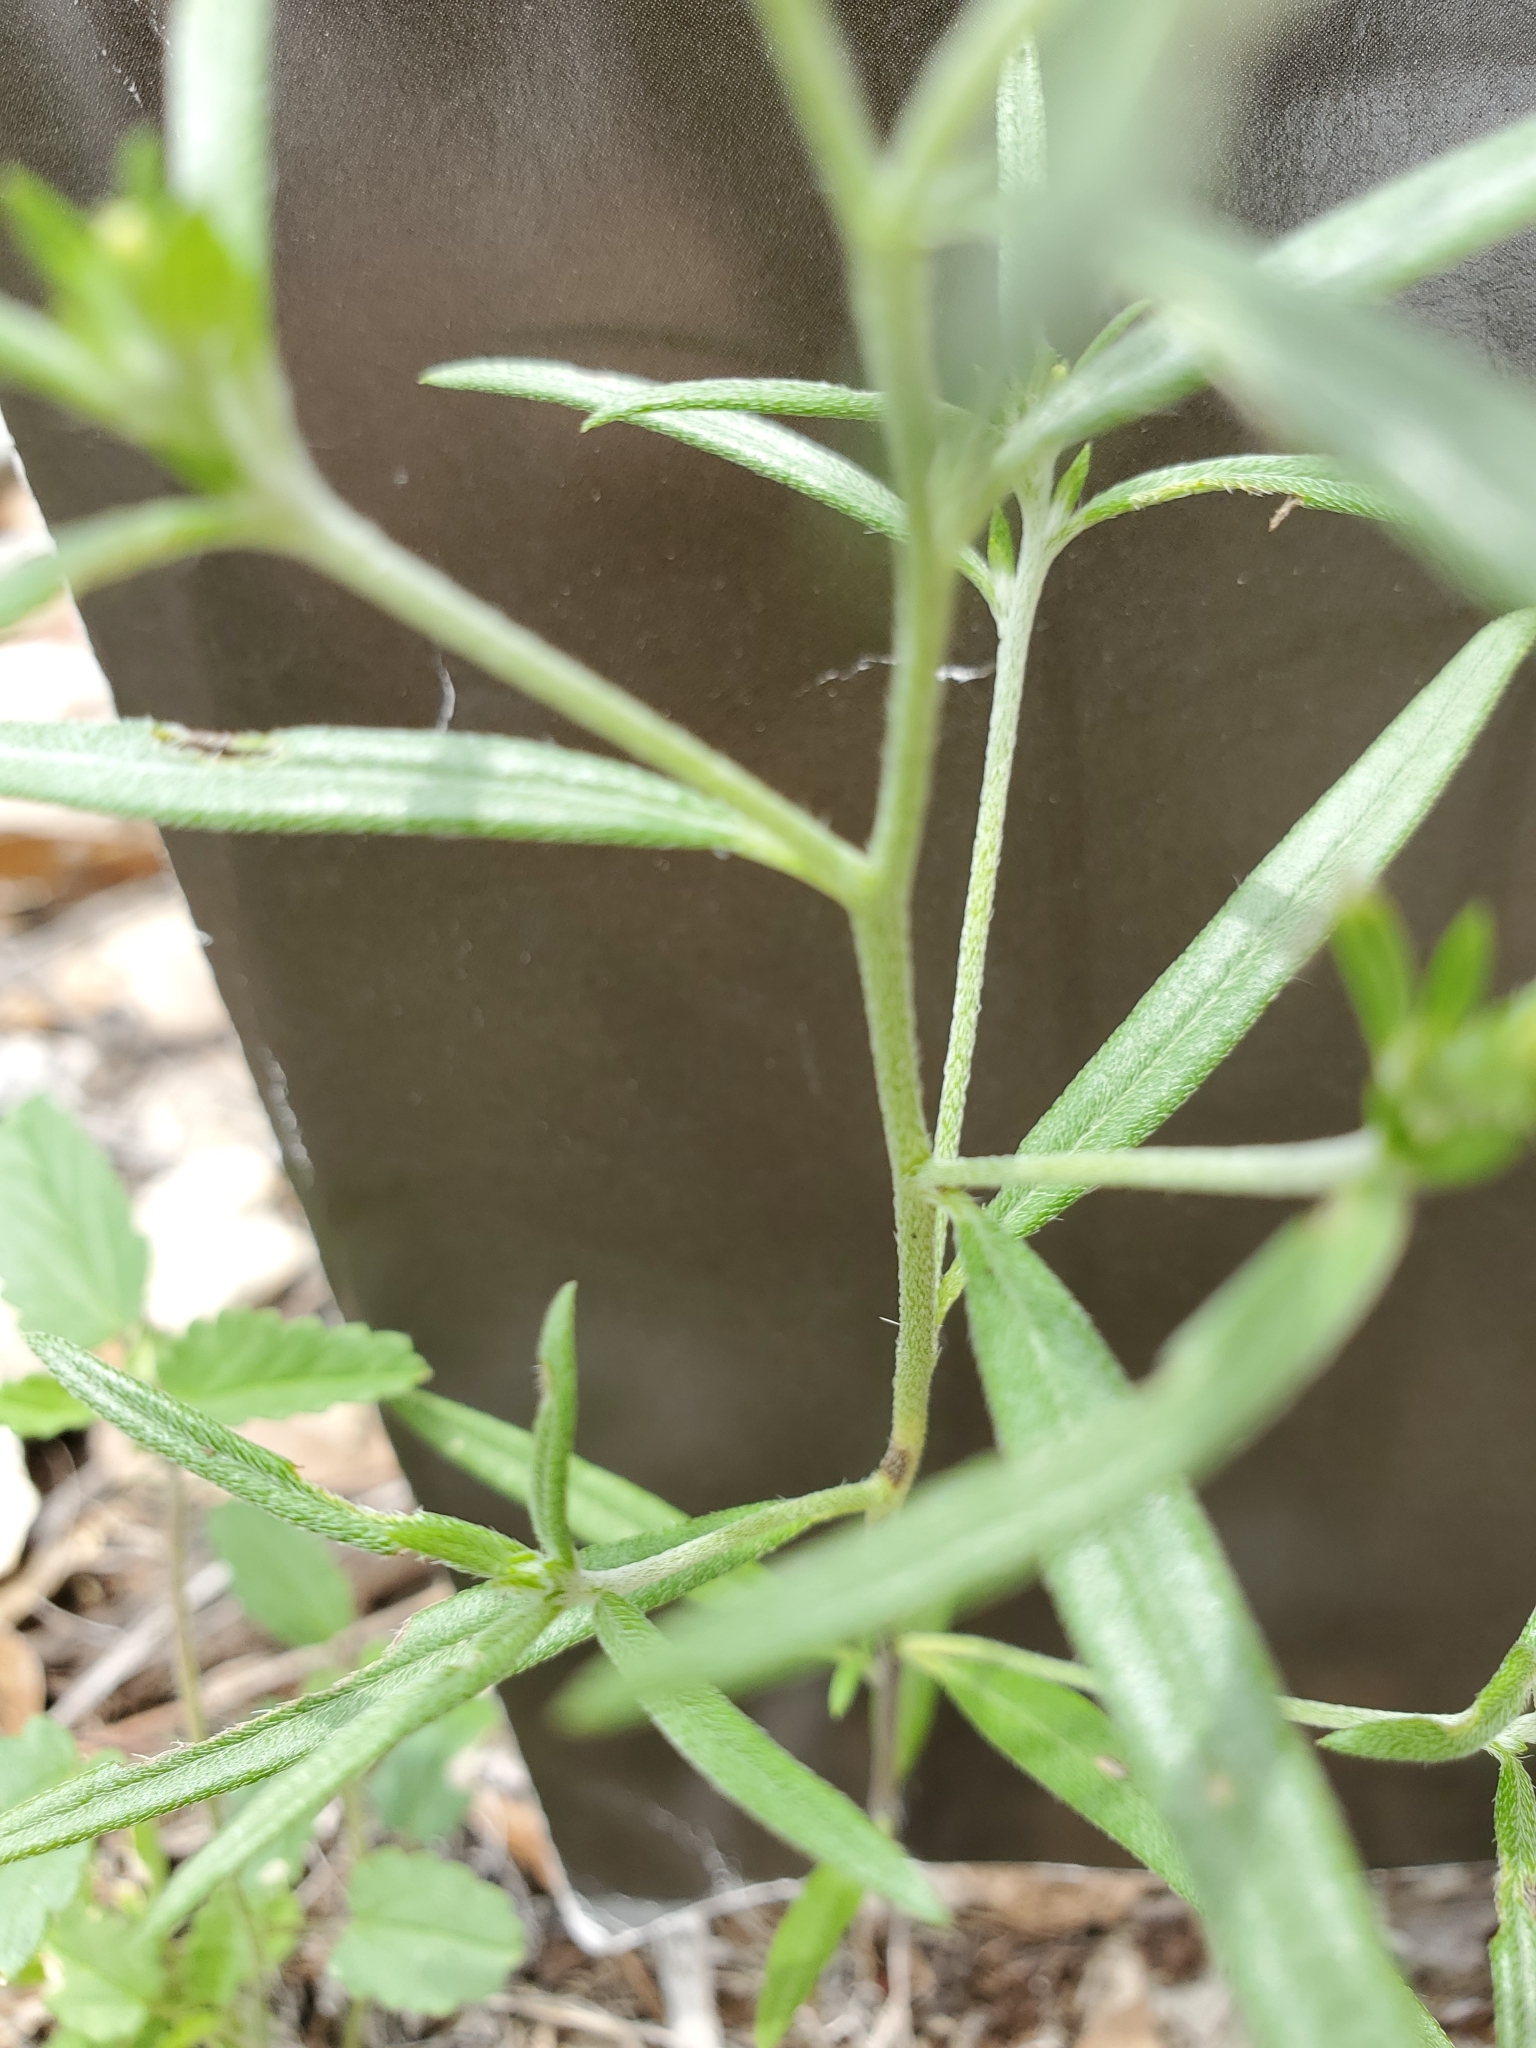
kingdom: Plantae
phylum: Tracheophyta
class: Magnoliopsida
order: Boraginales
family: Heliotropiaceae
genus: Euploca
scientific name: Euploca tenella
